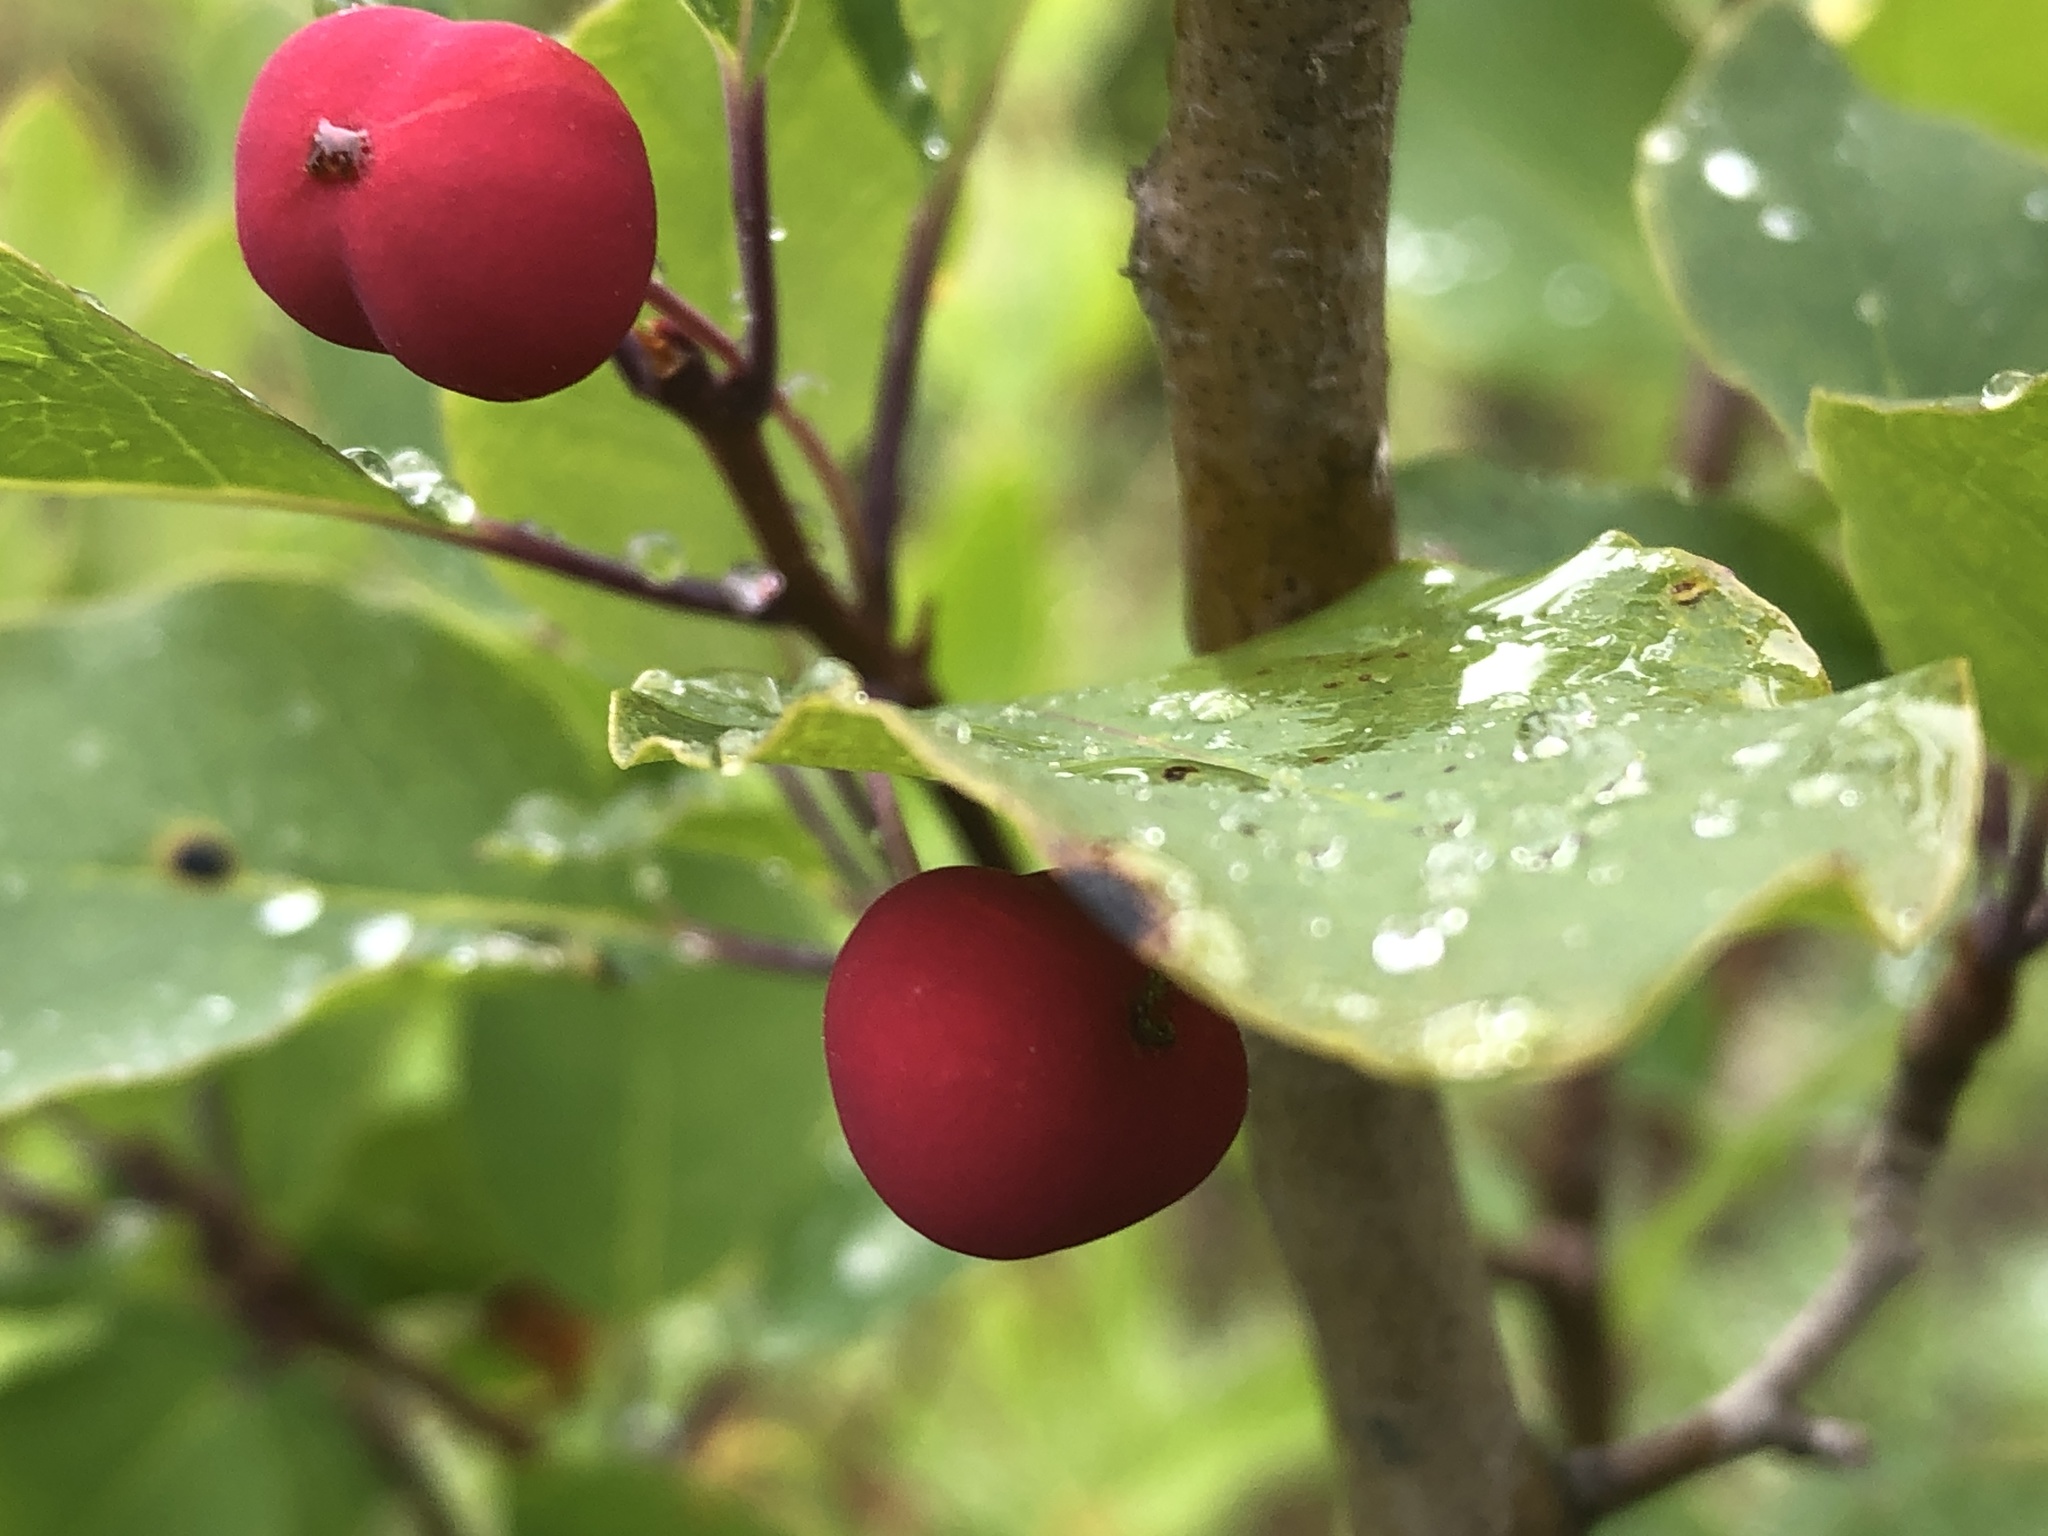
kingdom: Plantae
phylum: Tracheophyta
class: Magnoliopsida
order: Aquifoliales
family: Aquifoliaceae
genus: Ilex
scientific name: Ilex mucronata
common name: Catberry
